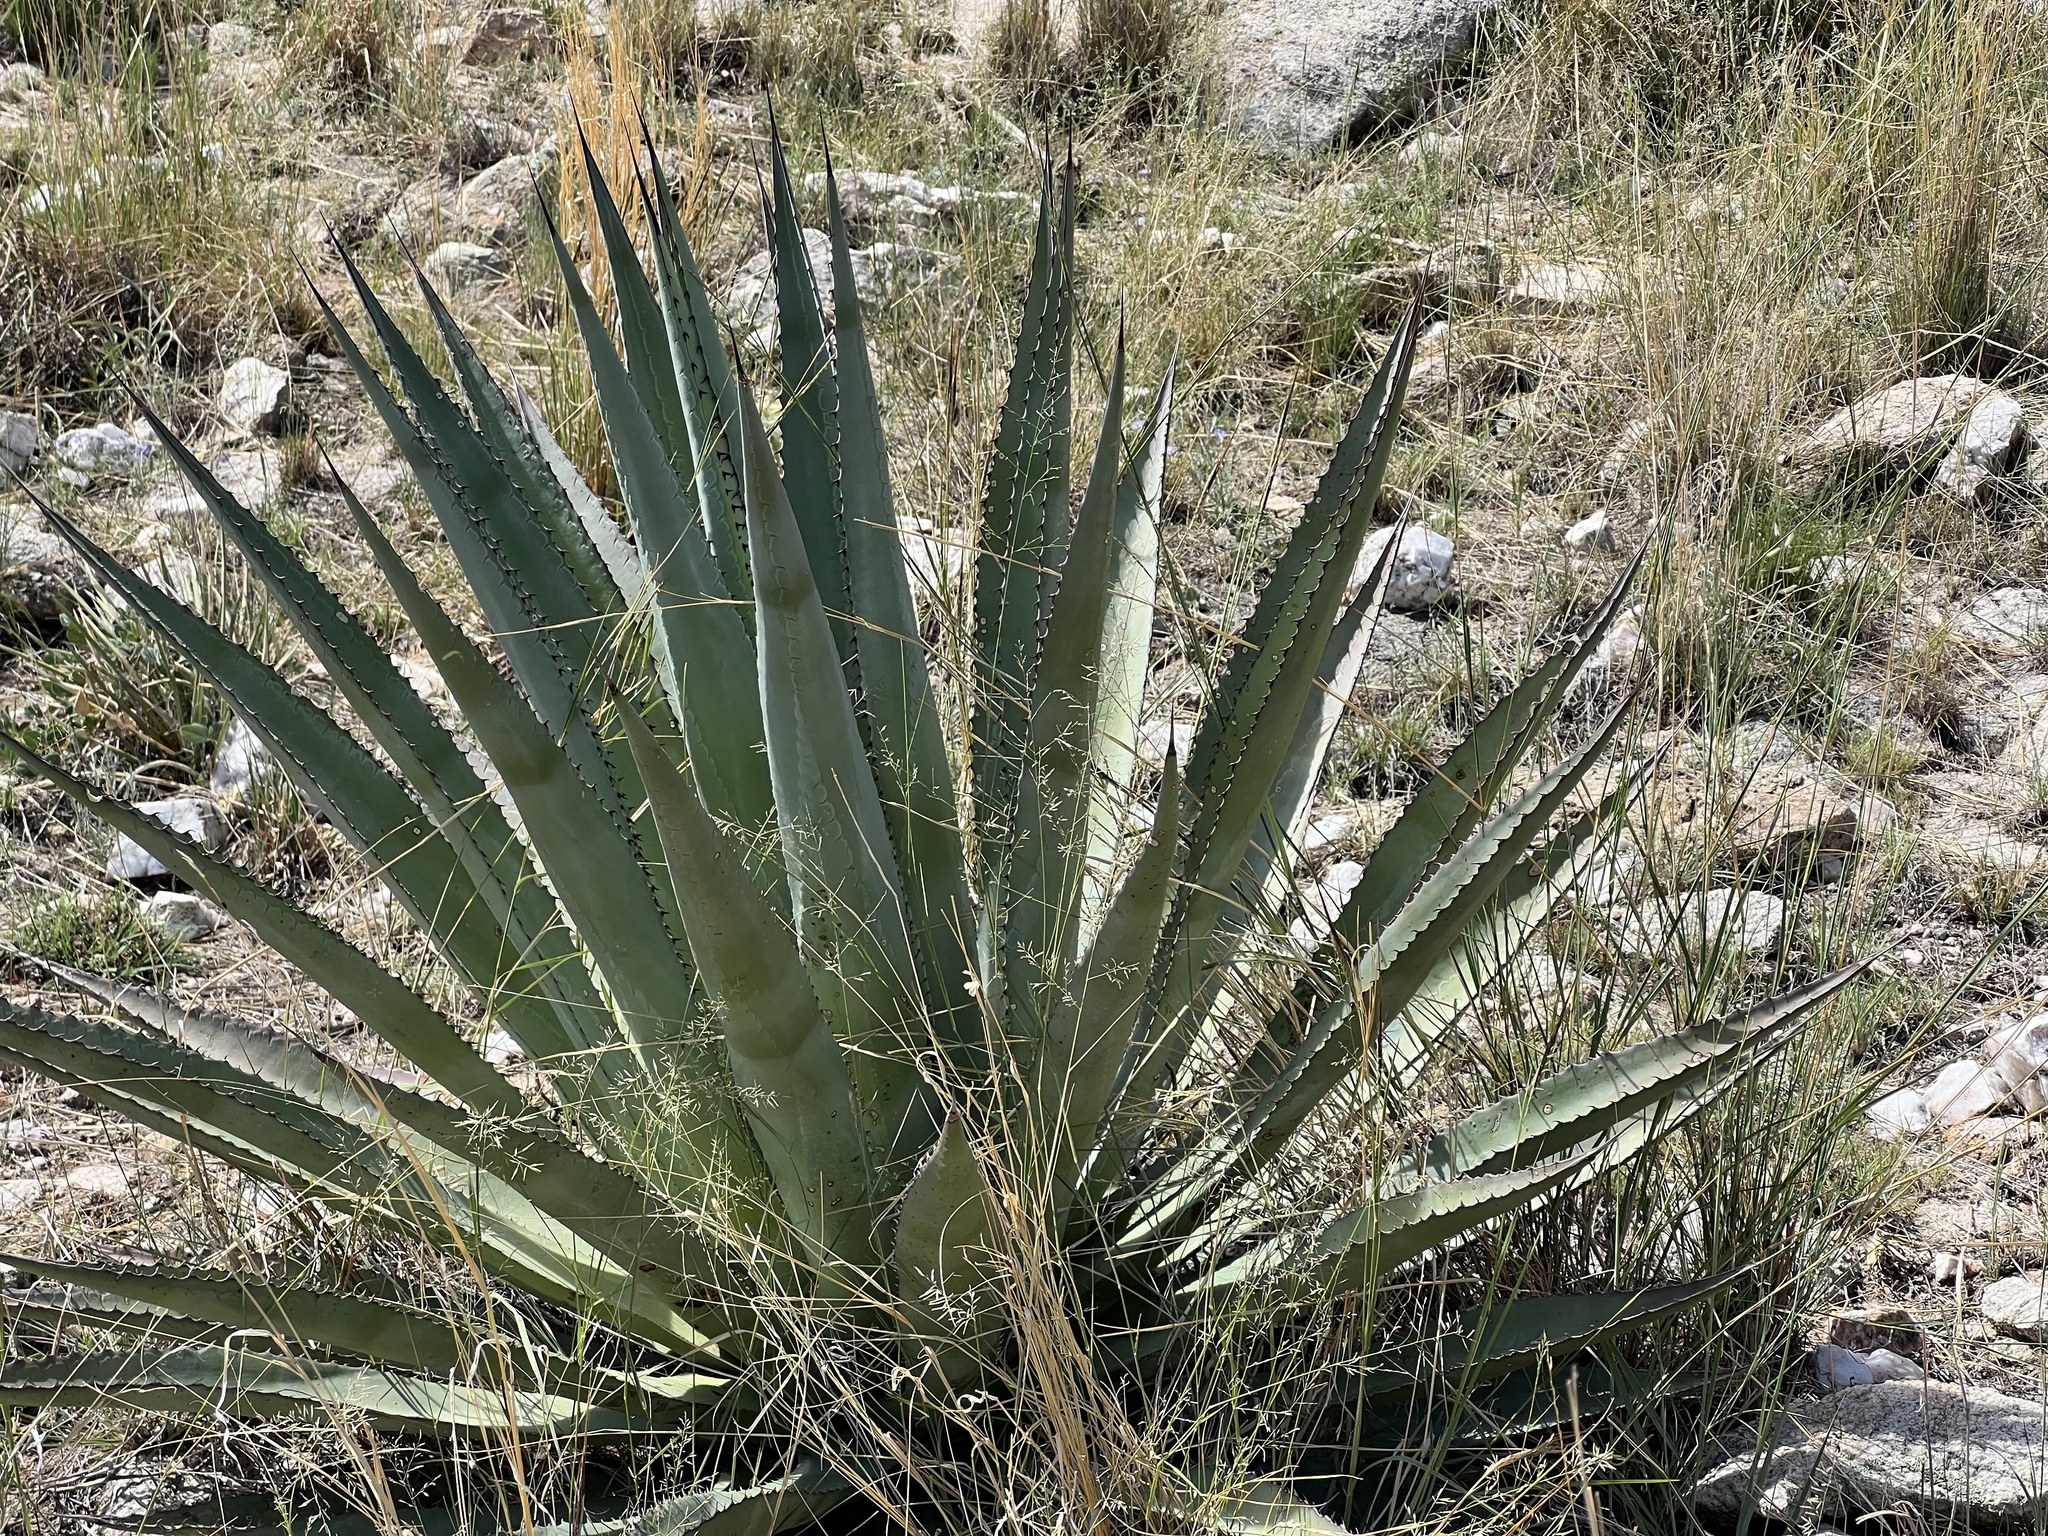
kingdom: Plantae
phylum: Tracheophyta
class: Liliopsida
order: Asparagales
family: Asparagaceae
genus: Agave
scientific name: Agave palmeri
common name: Palmer agave
